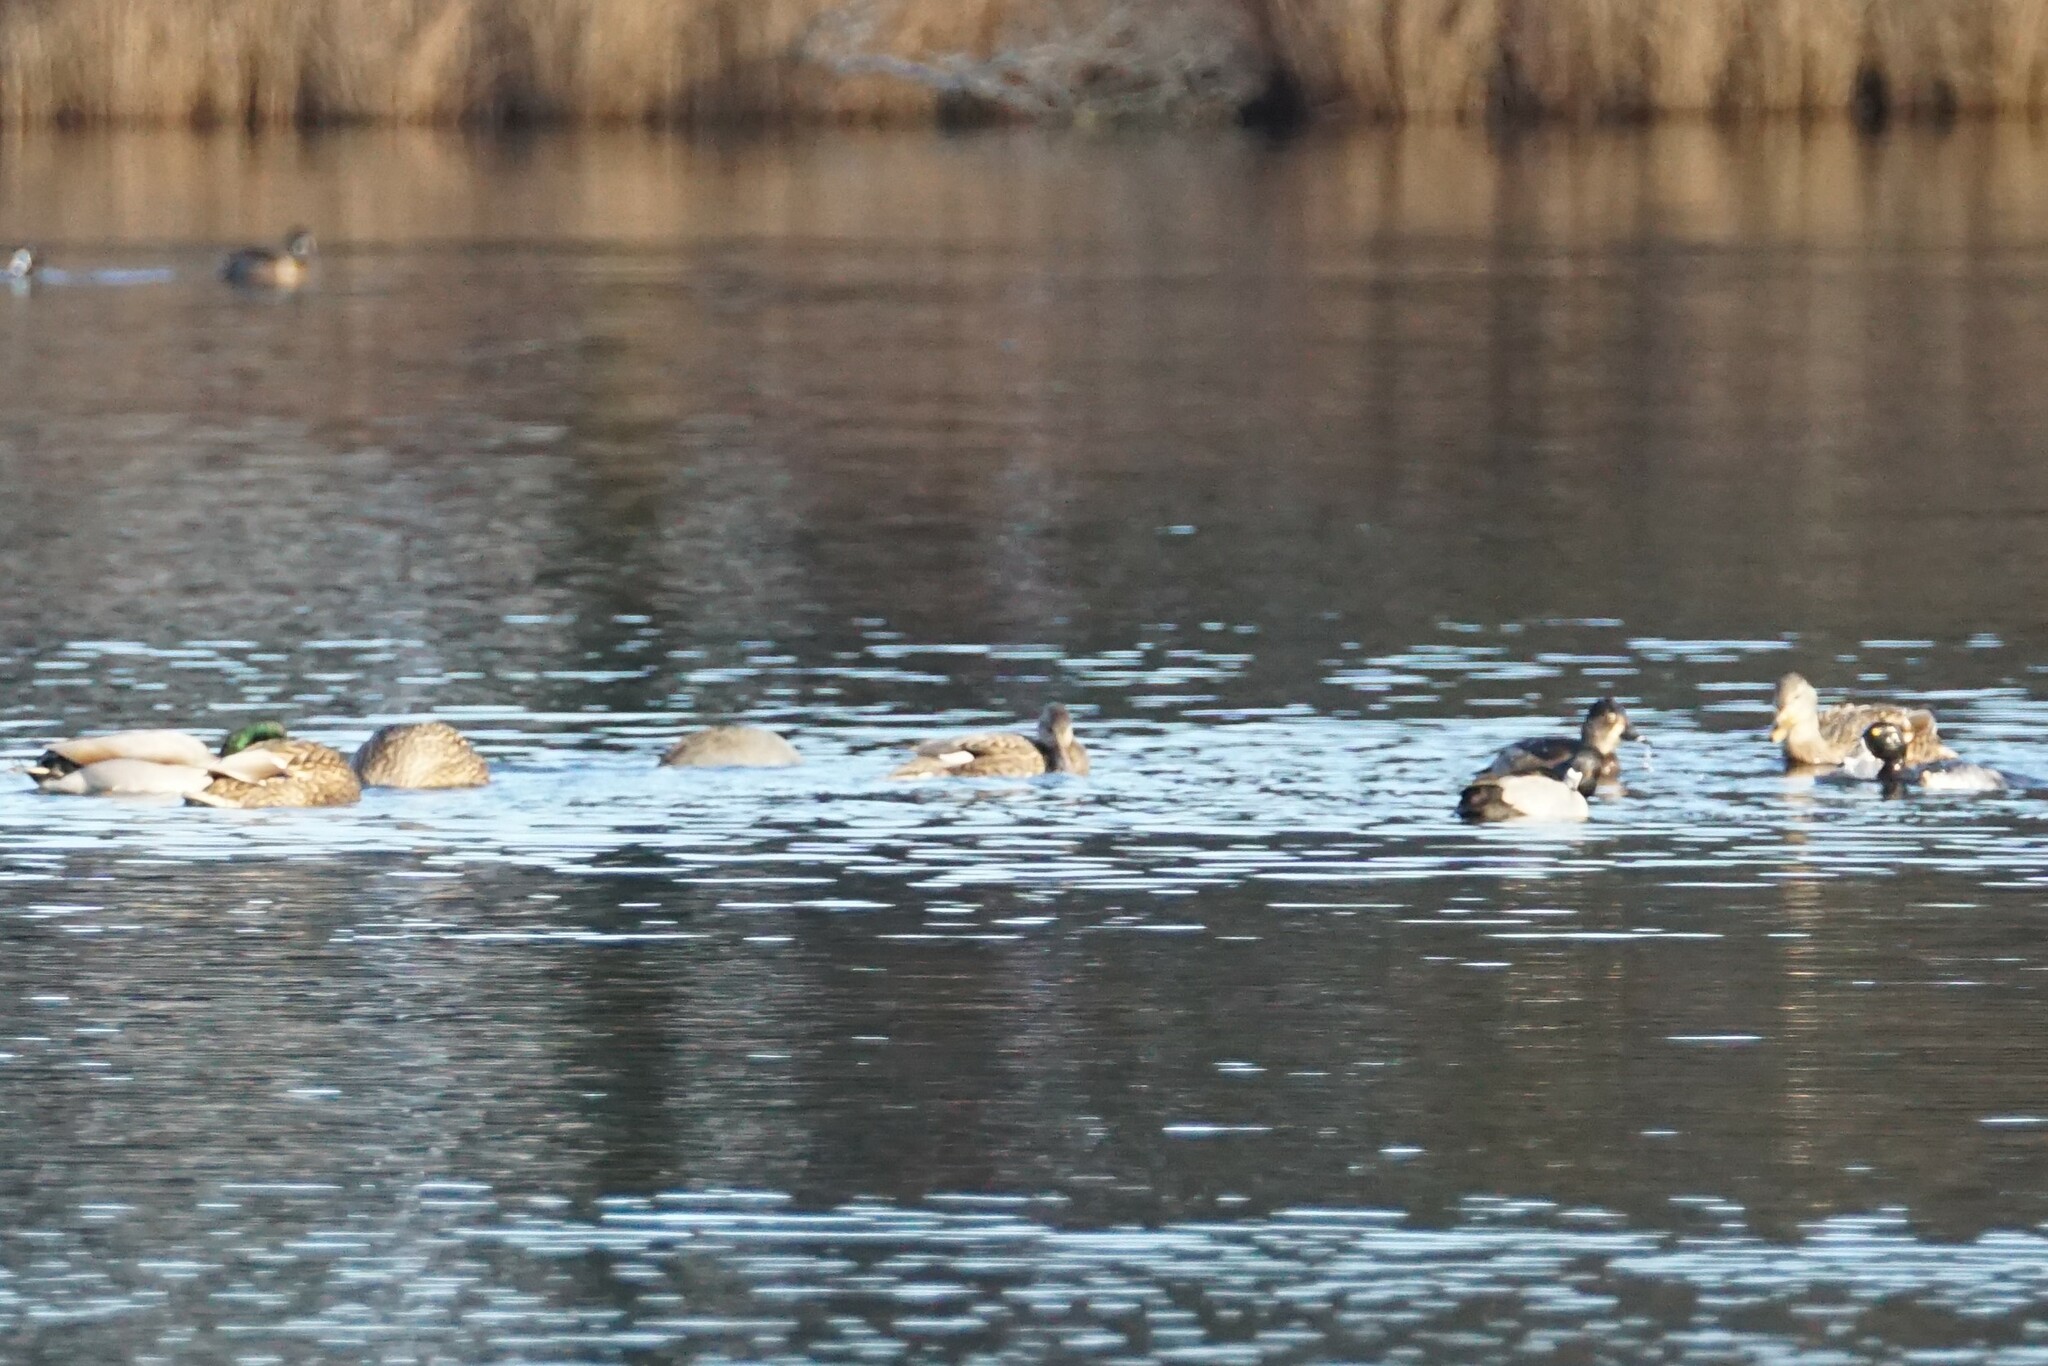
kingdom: Animalia
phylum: Chordata
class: Aves
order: Anseriformes
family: Anatidae
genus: Mareca
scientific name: Mareca strepera
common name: Gadwall
